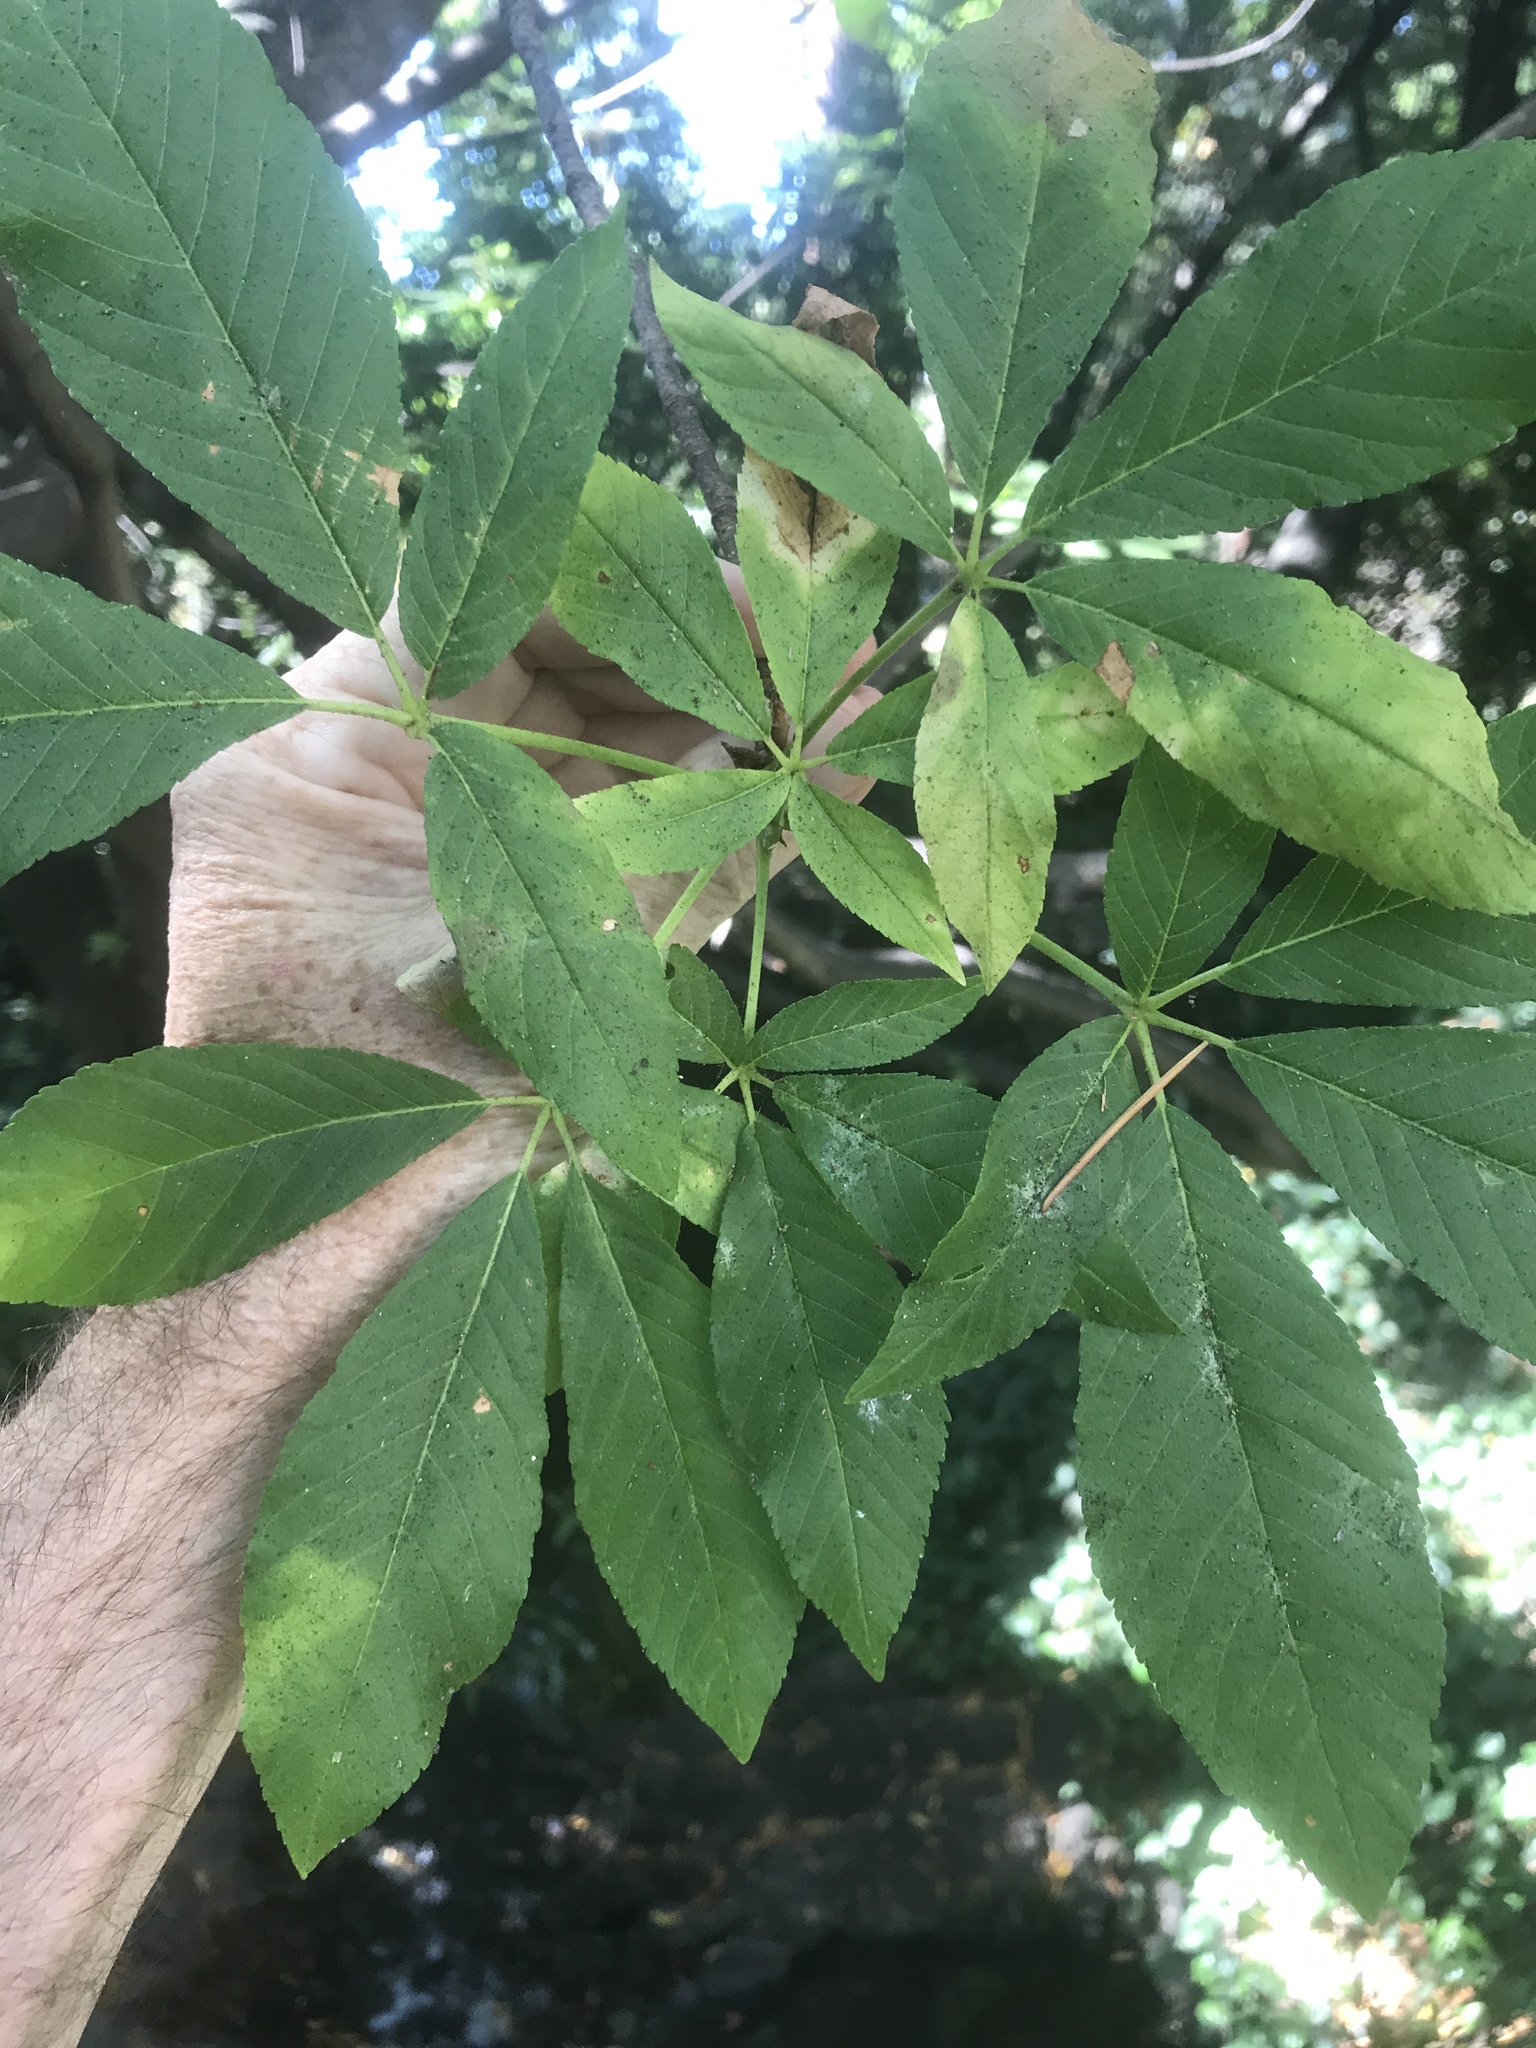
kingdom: Plantae
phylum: Tracheophyta
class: Magnoliopsida
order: Sapindales
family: Sapindaceae
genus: Aesculus
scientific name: Aesculus californica
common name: California buckeye
